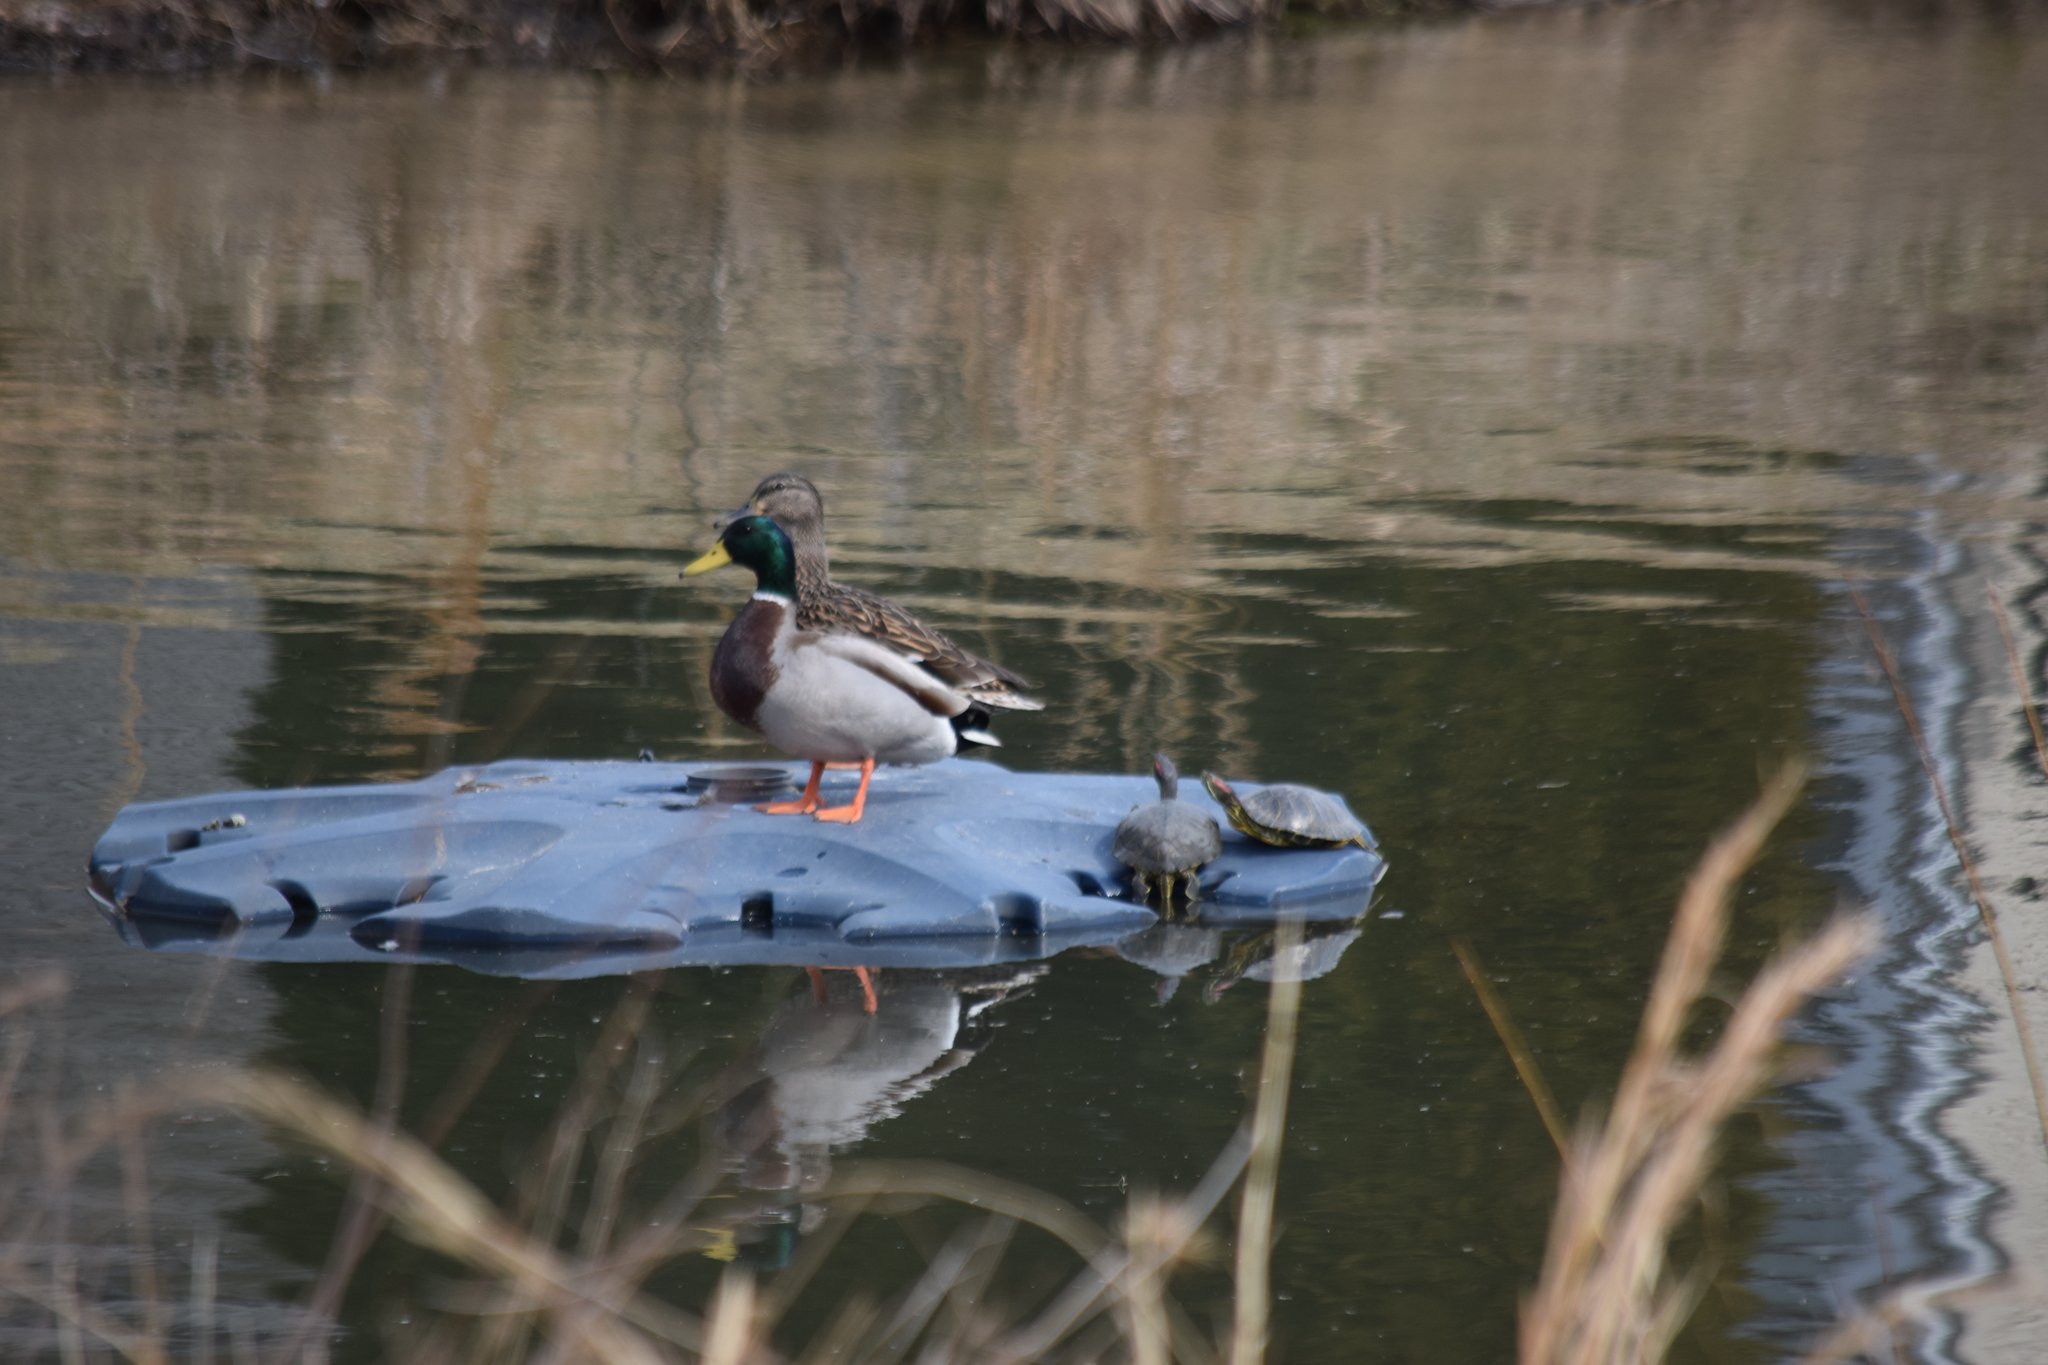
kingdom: Animalia
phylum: Chordata
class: Aves
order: Anseriformes
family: Anatidae
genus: Anas
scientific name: Anas platyrhynchos
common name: Mallard
